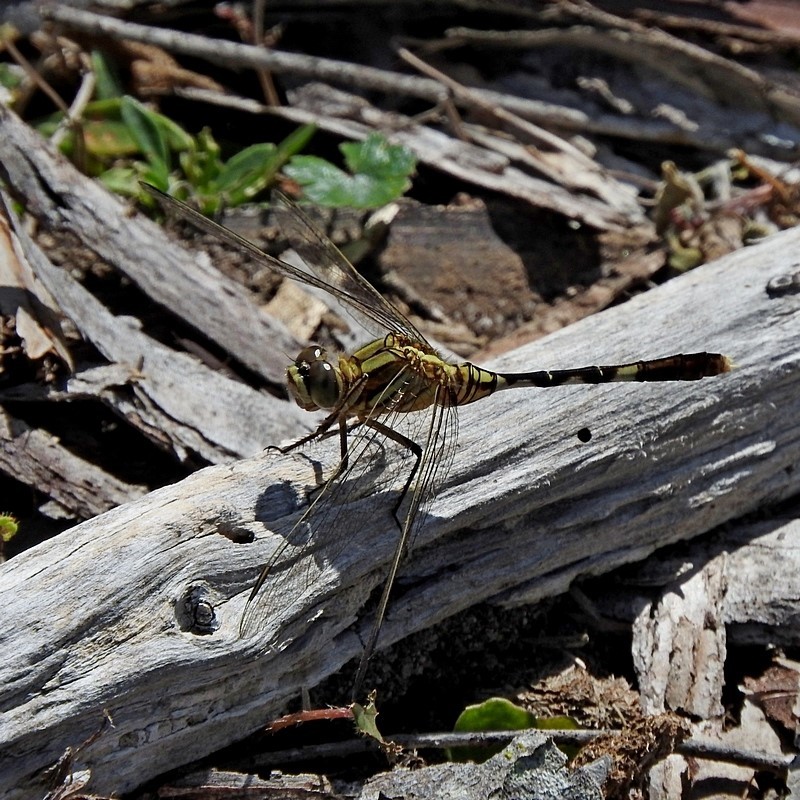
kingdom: Animalia
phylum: Arthropoda
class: Insecta
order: Odonata
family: Libellulidae
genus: Orthetrum
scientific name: Orthetrum sabina
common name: Slender skimmer
